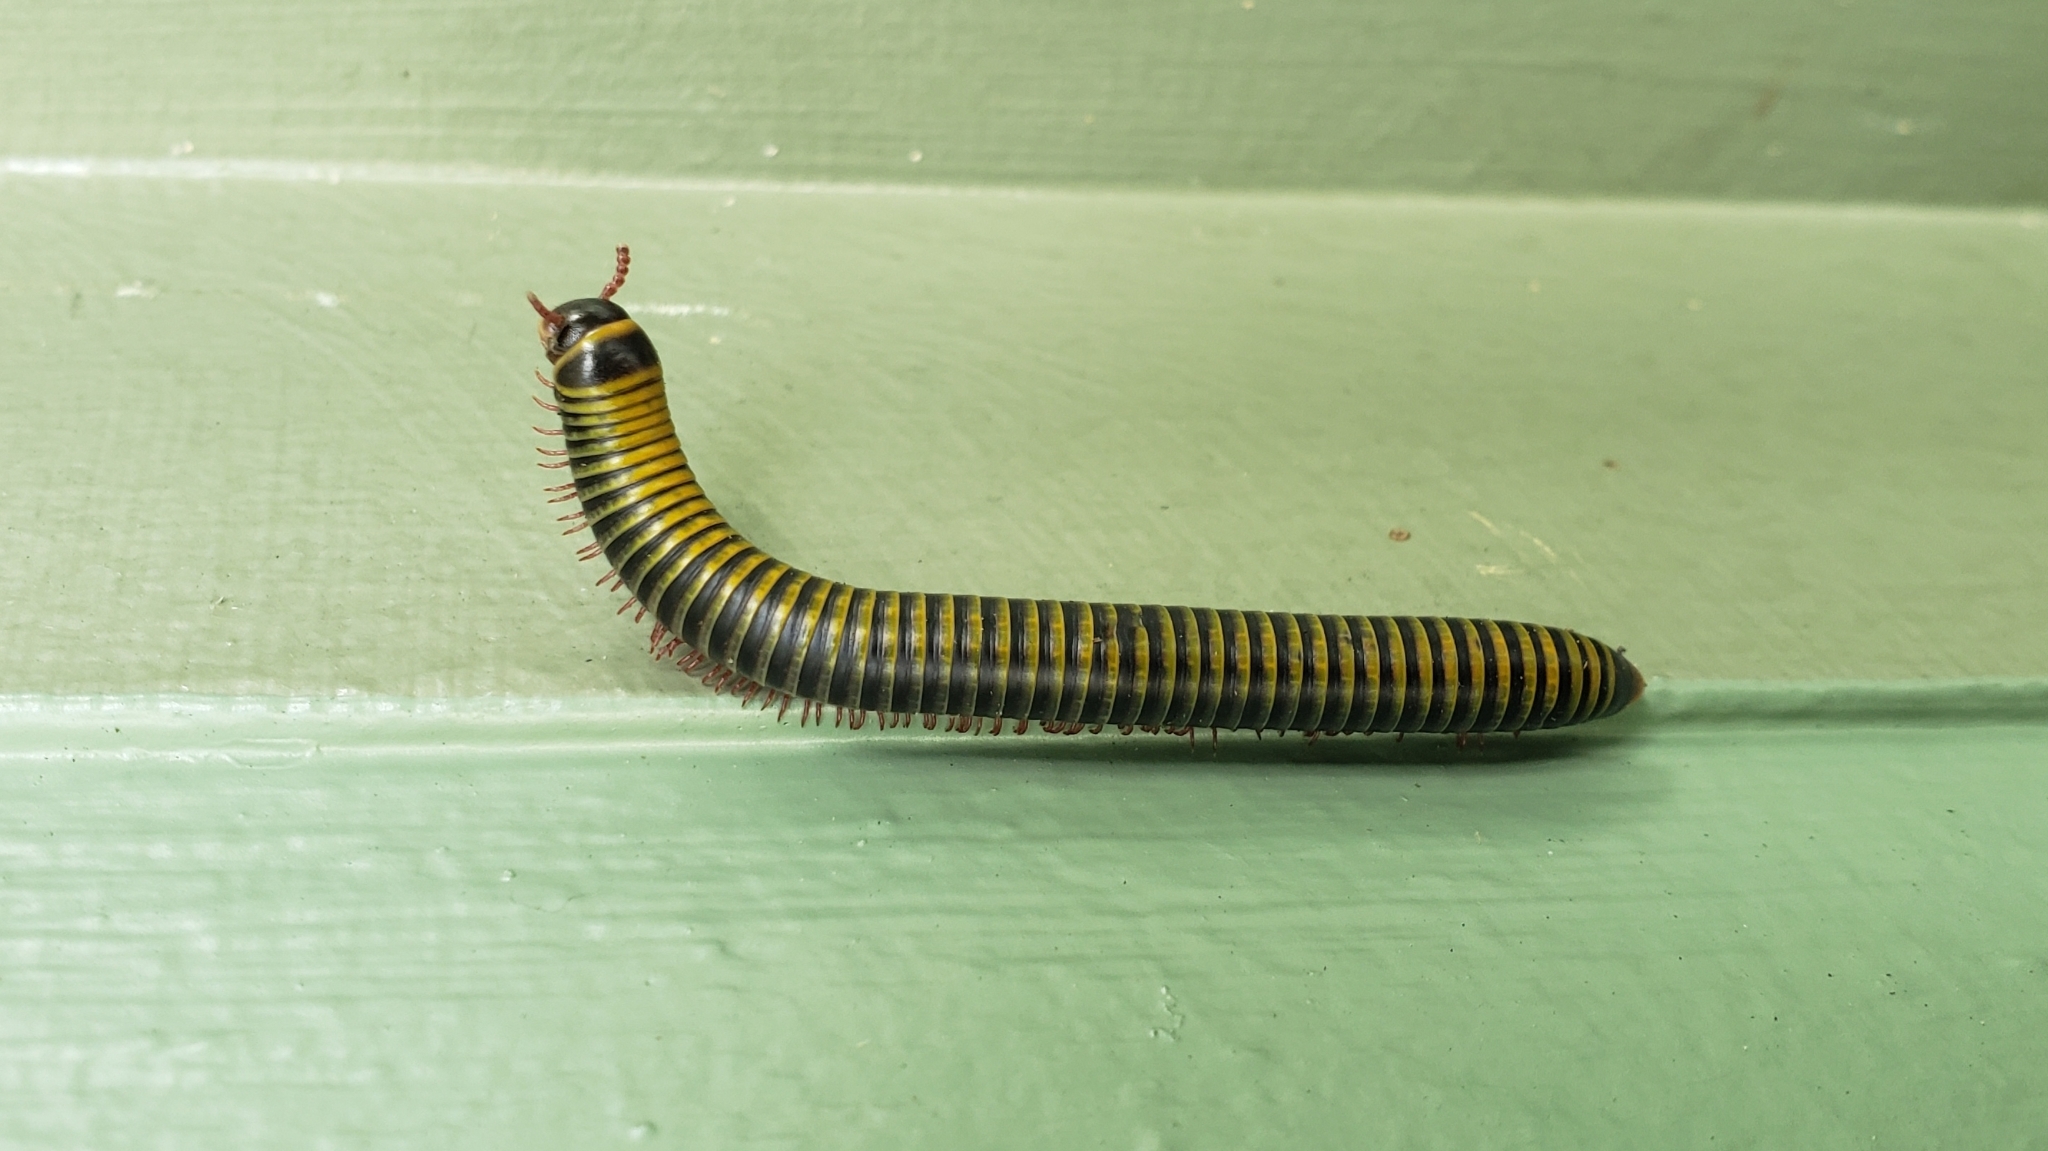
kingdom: Animalia
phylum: Arthropoda
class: Diplopoda
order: Spirobolida
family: Rhinocricidae
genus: Anadenobolus
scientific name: Anadenobolus monilicornis
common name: Caribbean millipede
